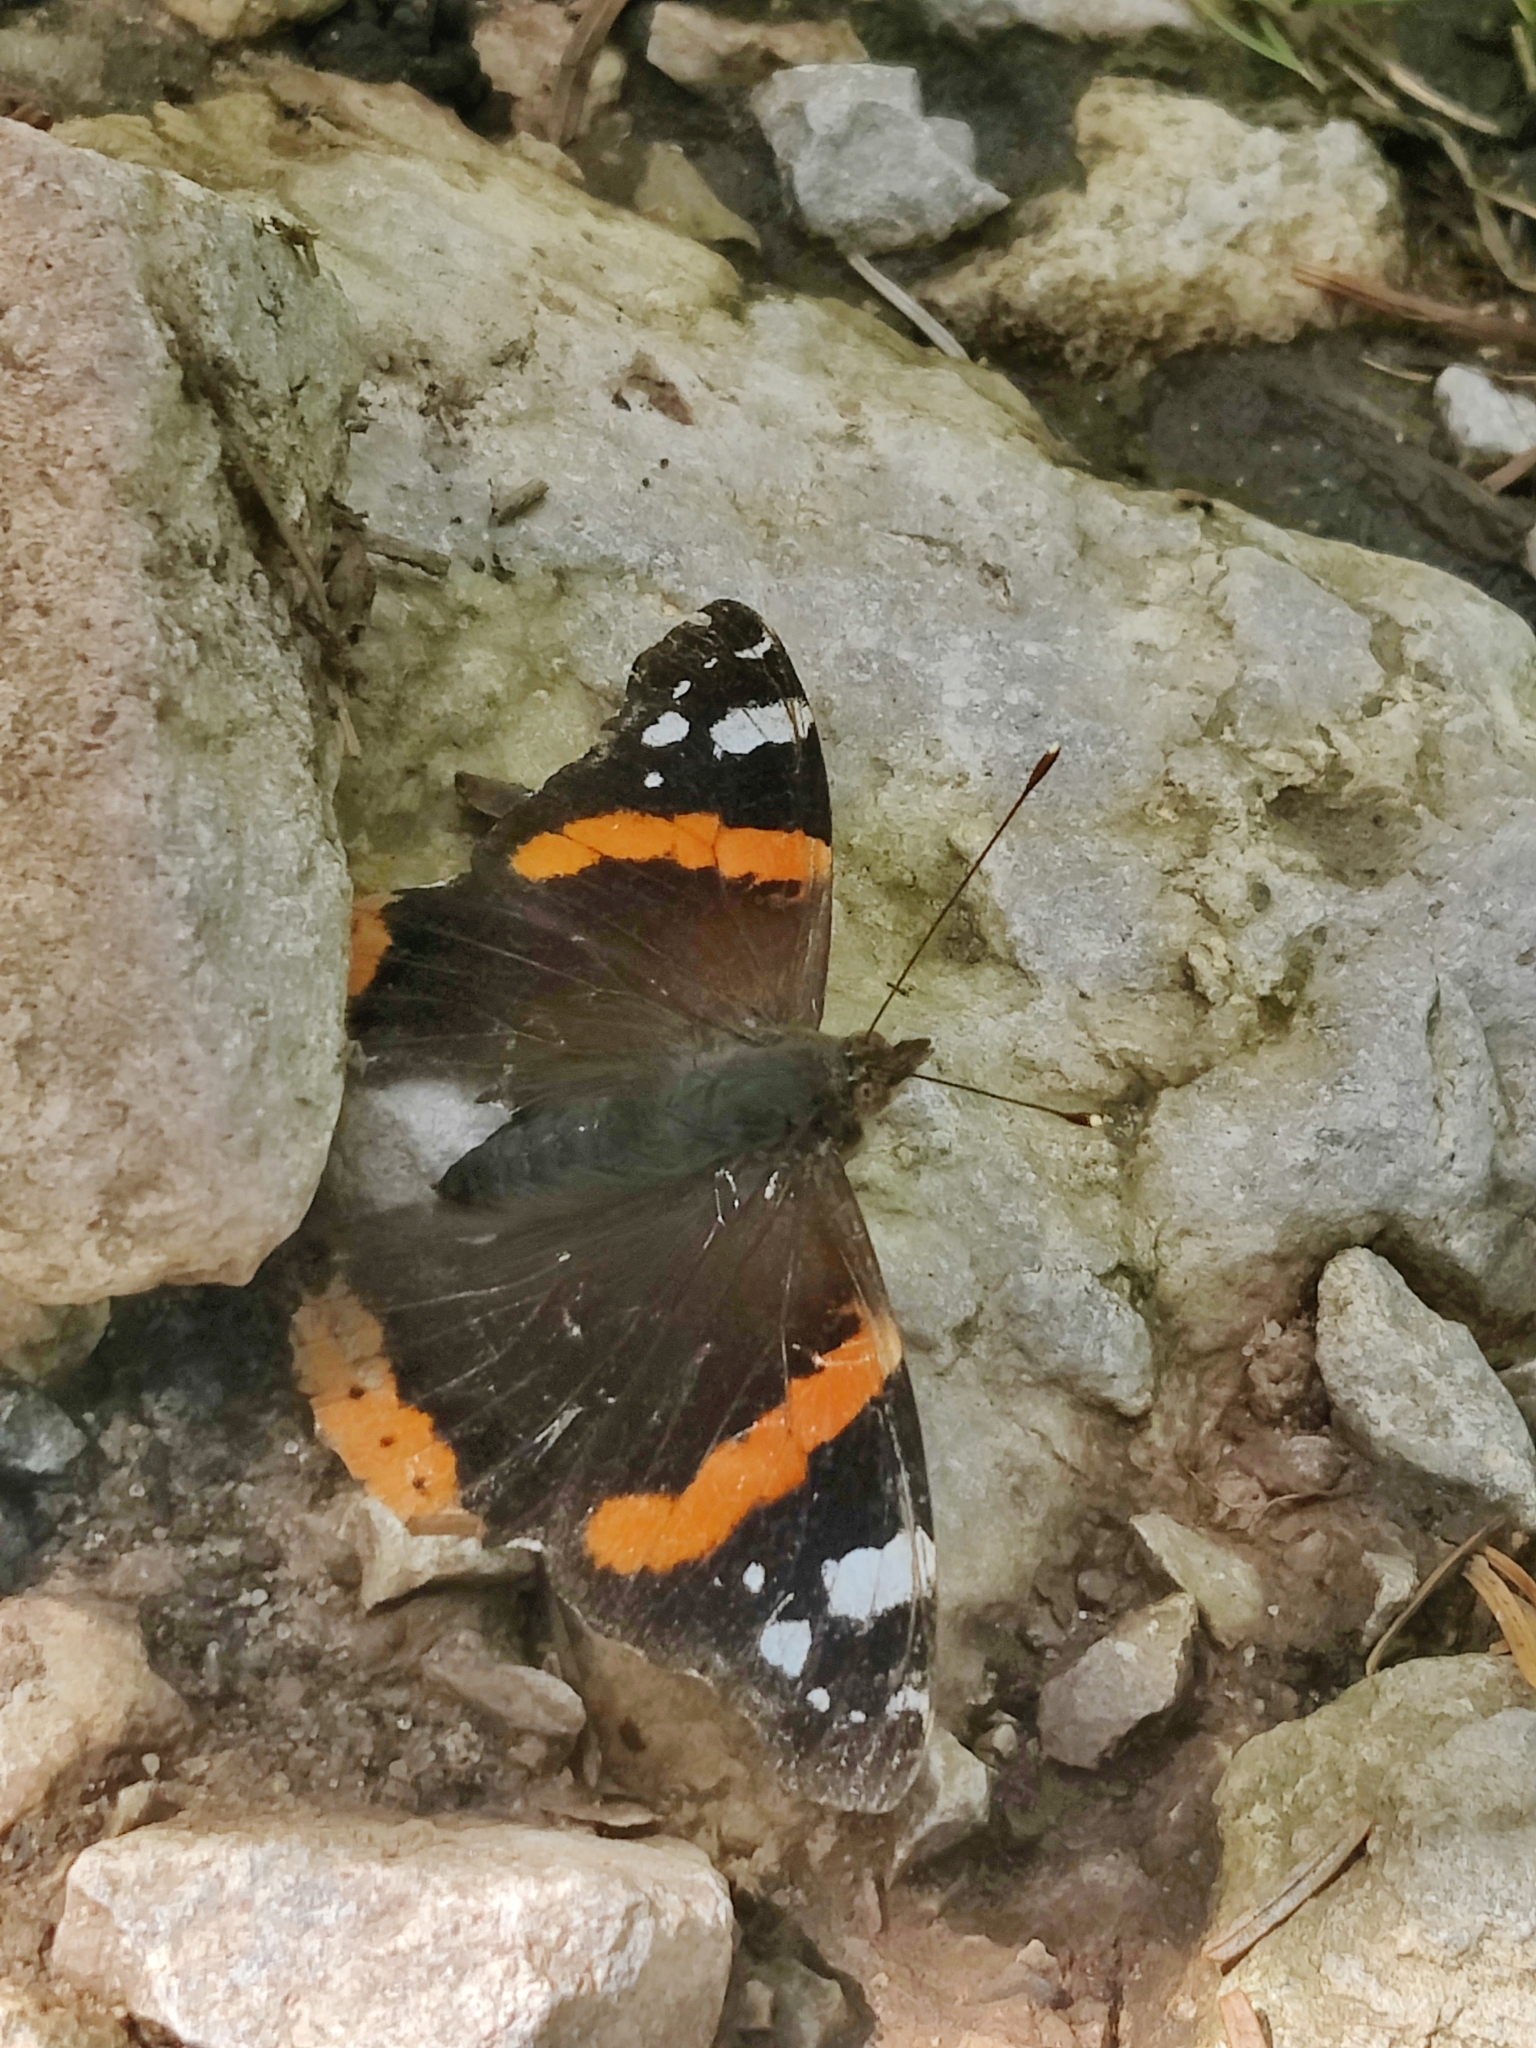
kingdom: Animalia
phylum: Arthropoda
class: Insecta
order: Lepidoptera
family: Nymphalidae
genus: Vanessa
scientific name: Vanessa atalanta
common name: Red admiral
